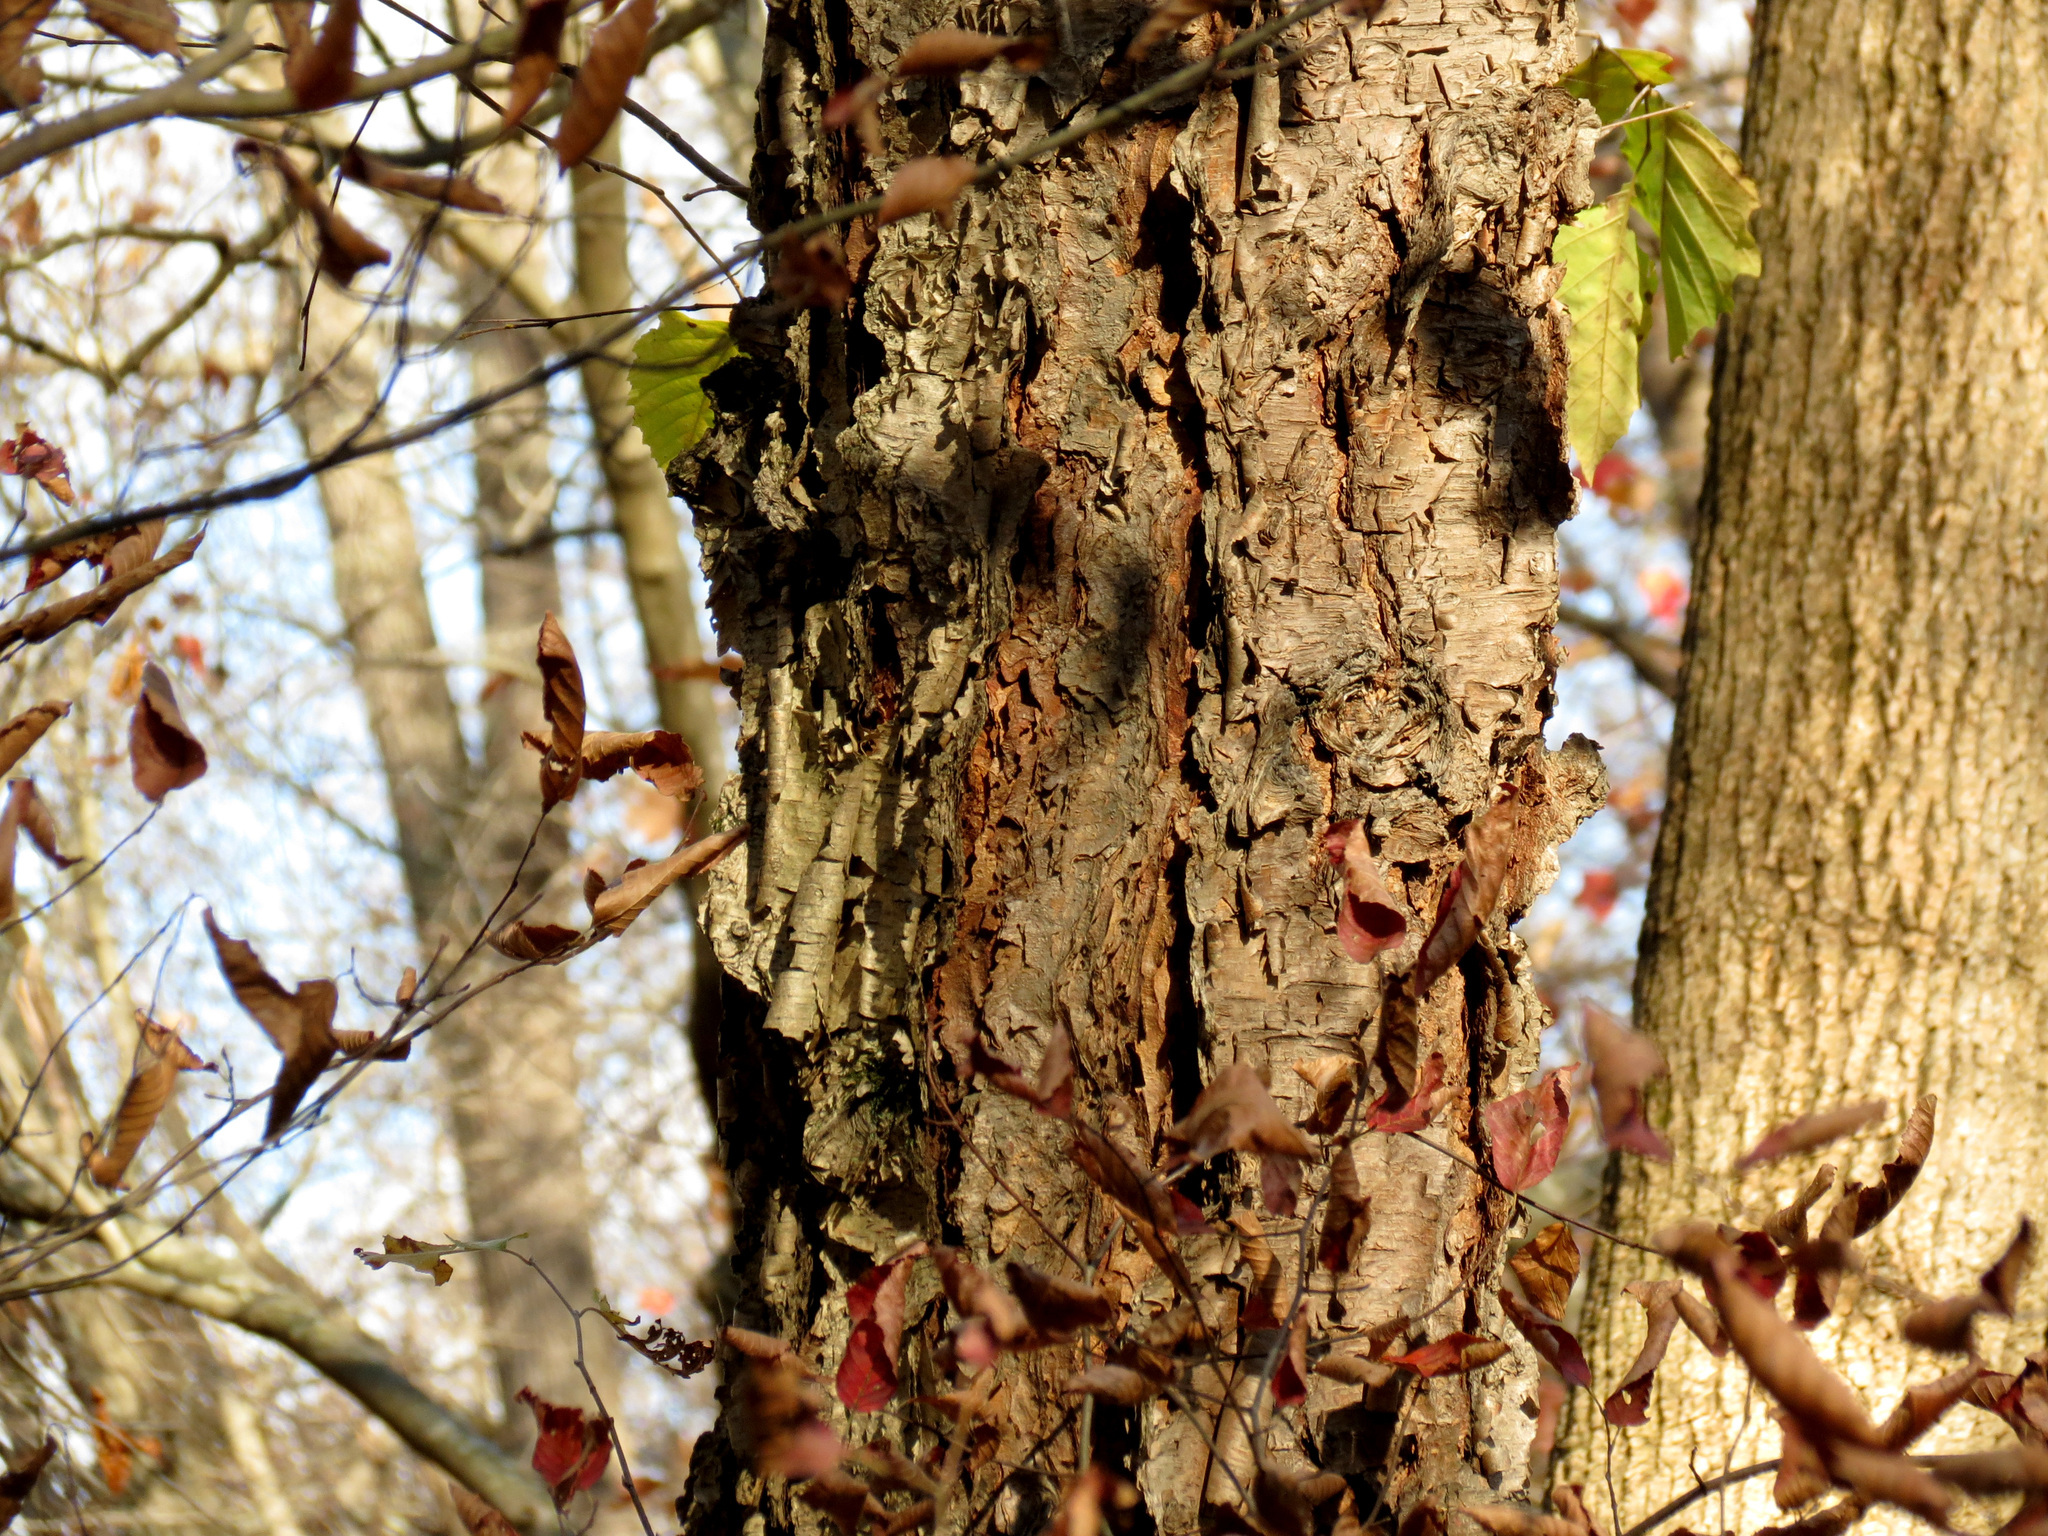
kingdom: Plantae
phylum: Tracheophyta
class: Magnoliopsida
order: Fagales
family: Betulaceae
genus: Betula
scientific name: Betula nigra
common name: Black birch
